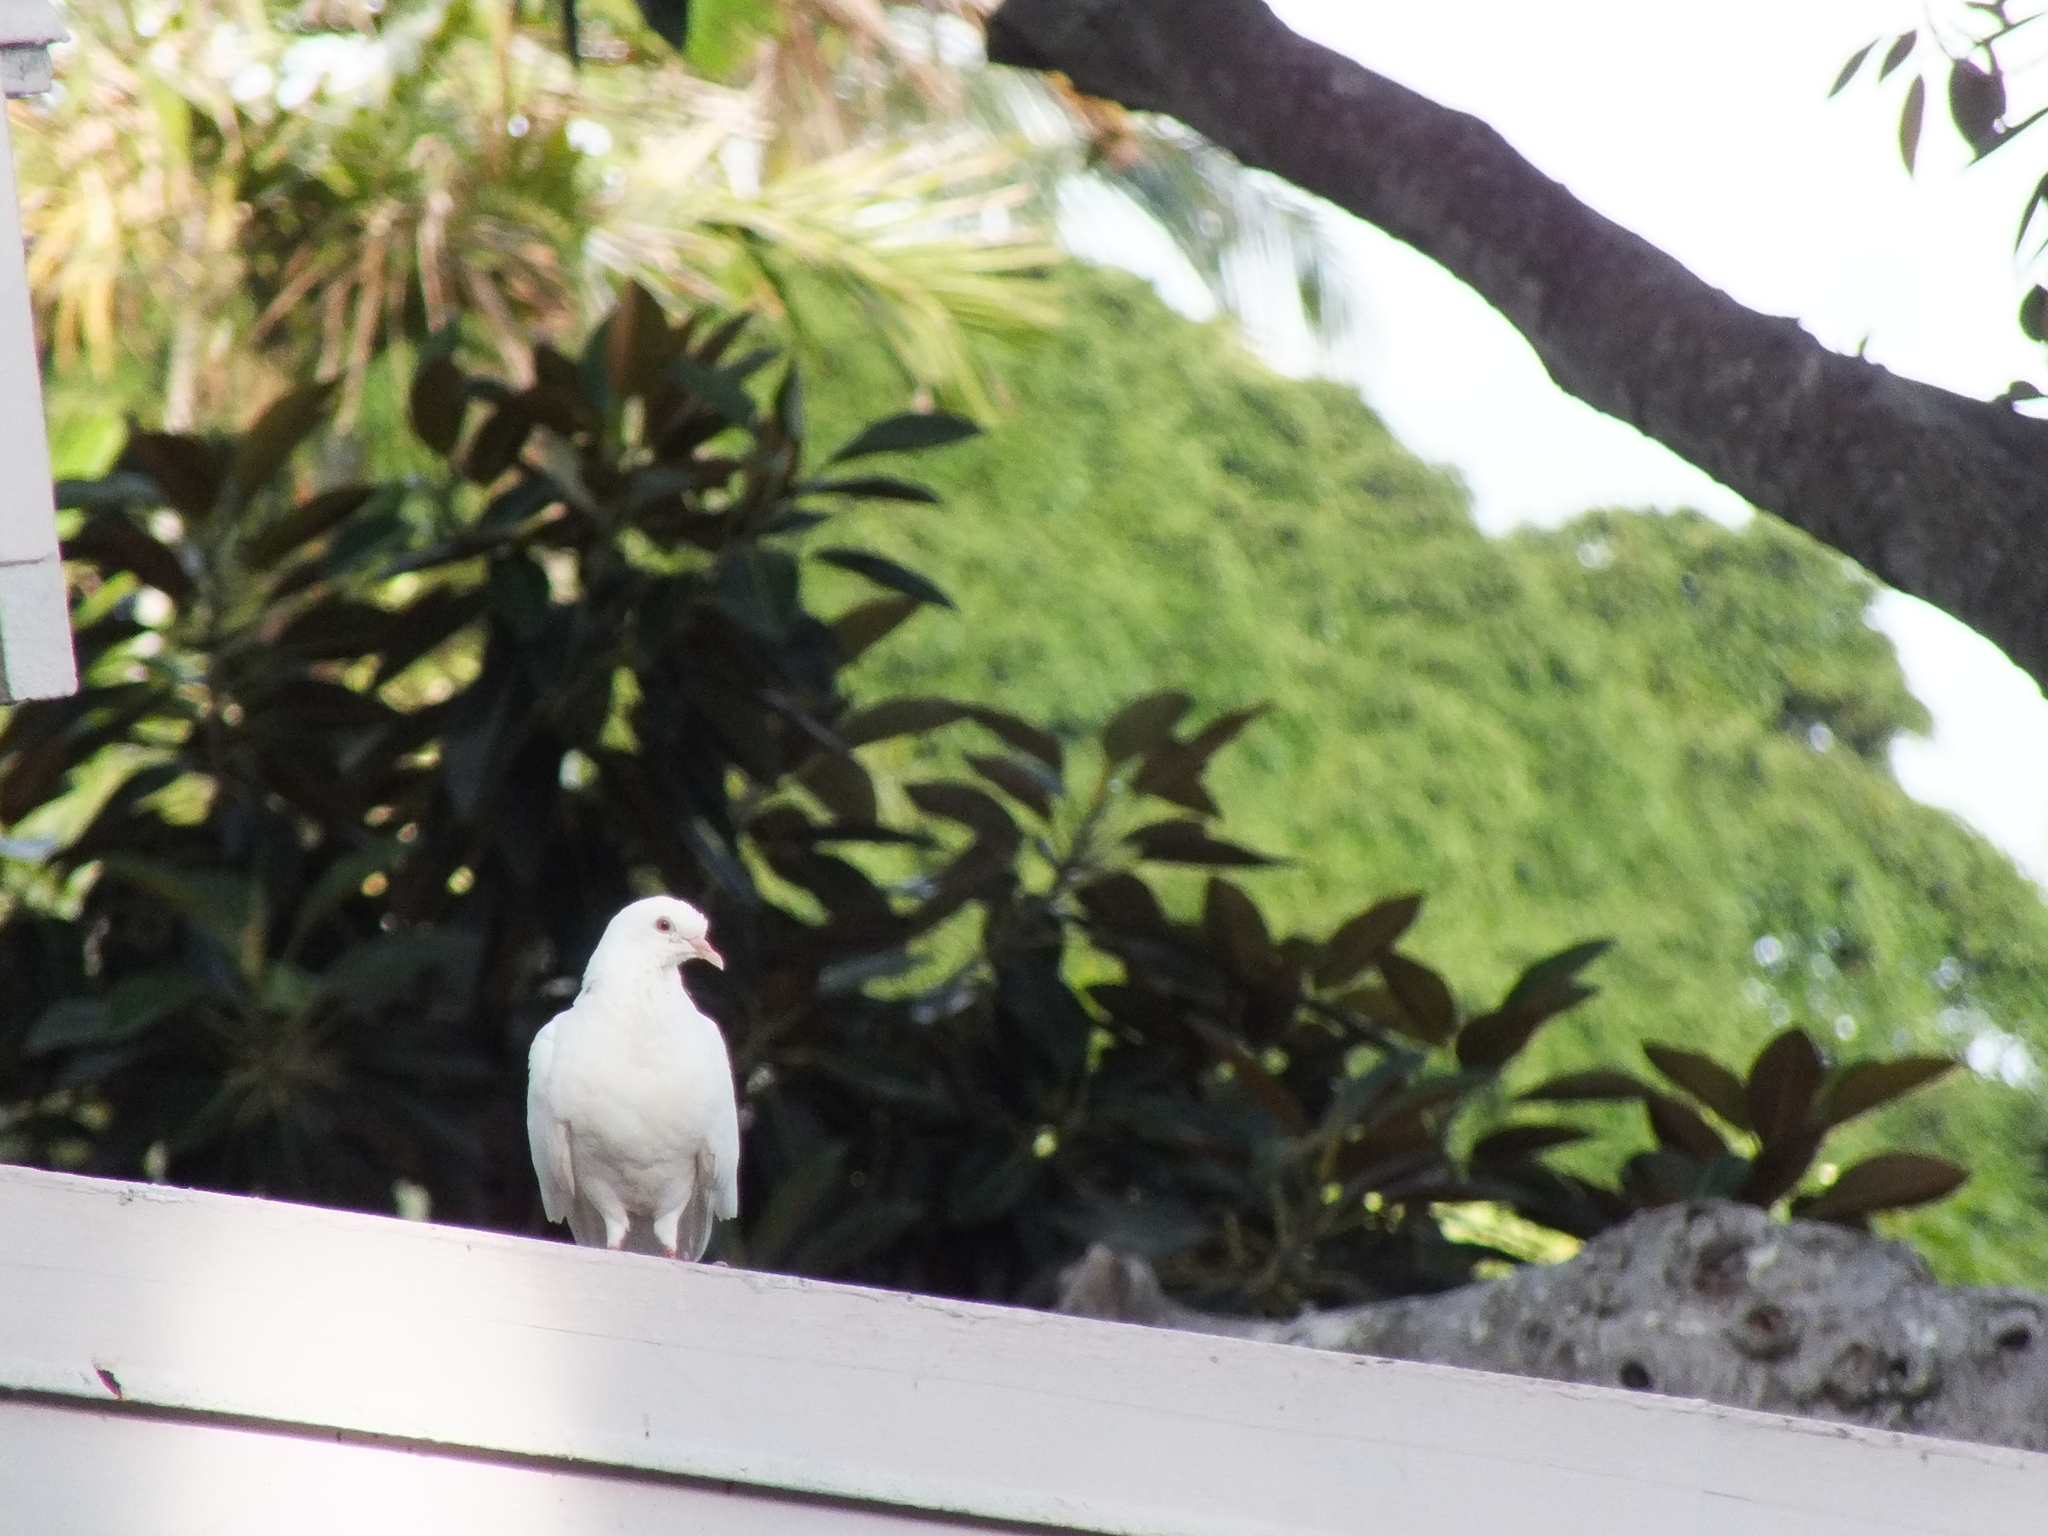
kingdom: Animalia
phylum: Chordata
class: Aves
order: Columbiformes
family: Columbidae
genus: Columba
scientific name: Columba livia
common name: Rock pigeon
